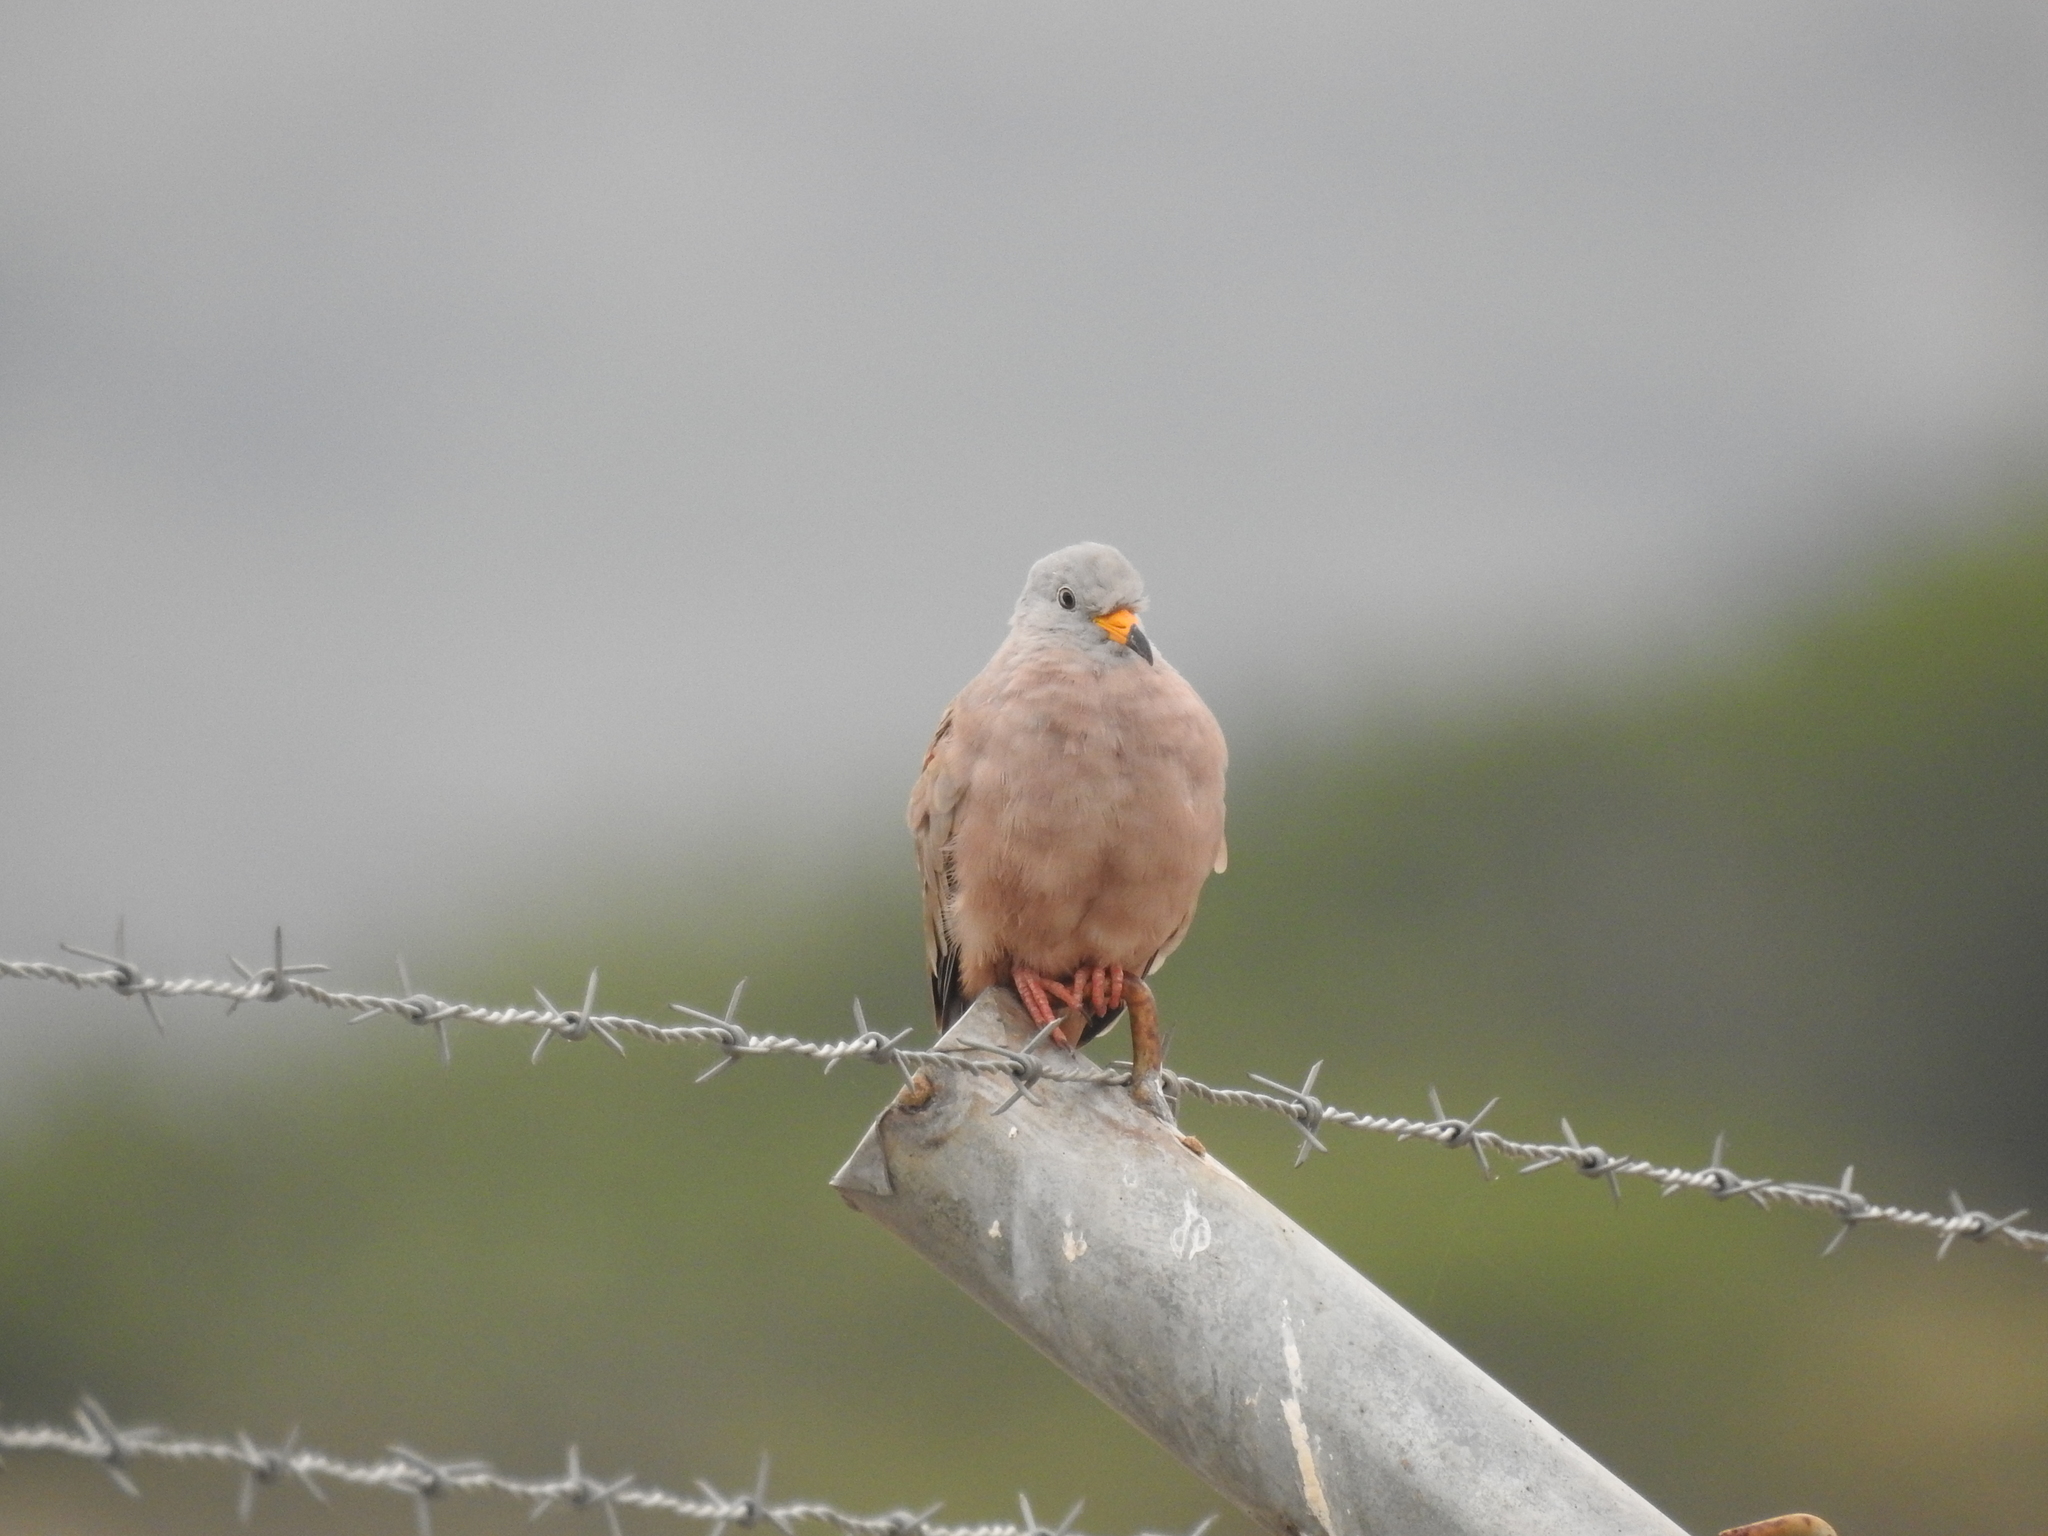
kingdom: Animalia
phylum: Chordata
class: Aves
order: Columbiformes
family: Columbidae
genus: Columbina
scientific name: Columbina cruziana
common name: Croaking ground dove
